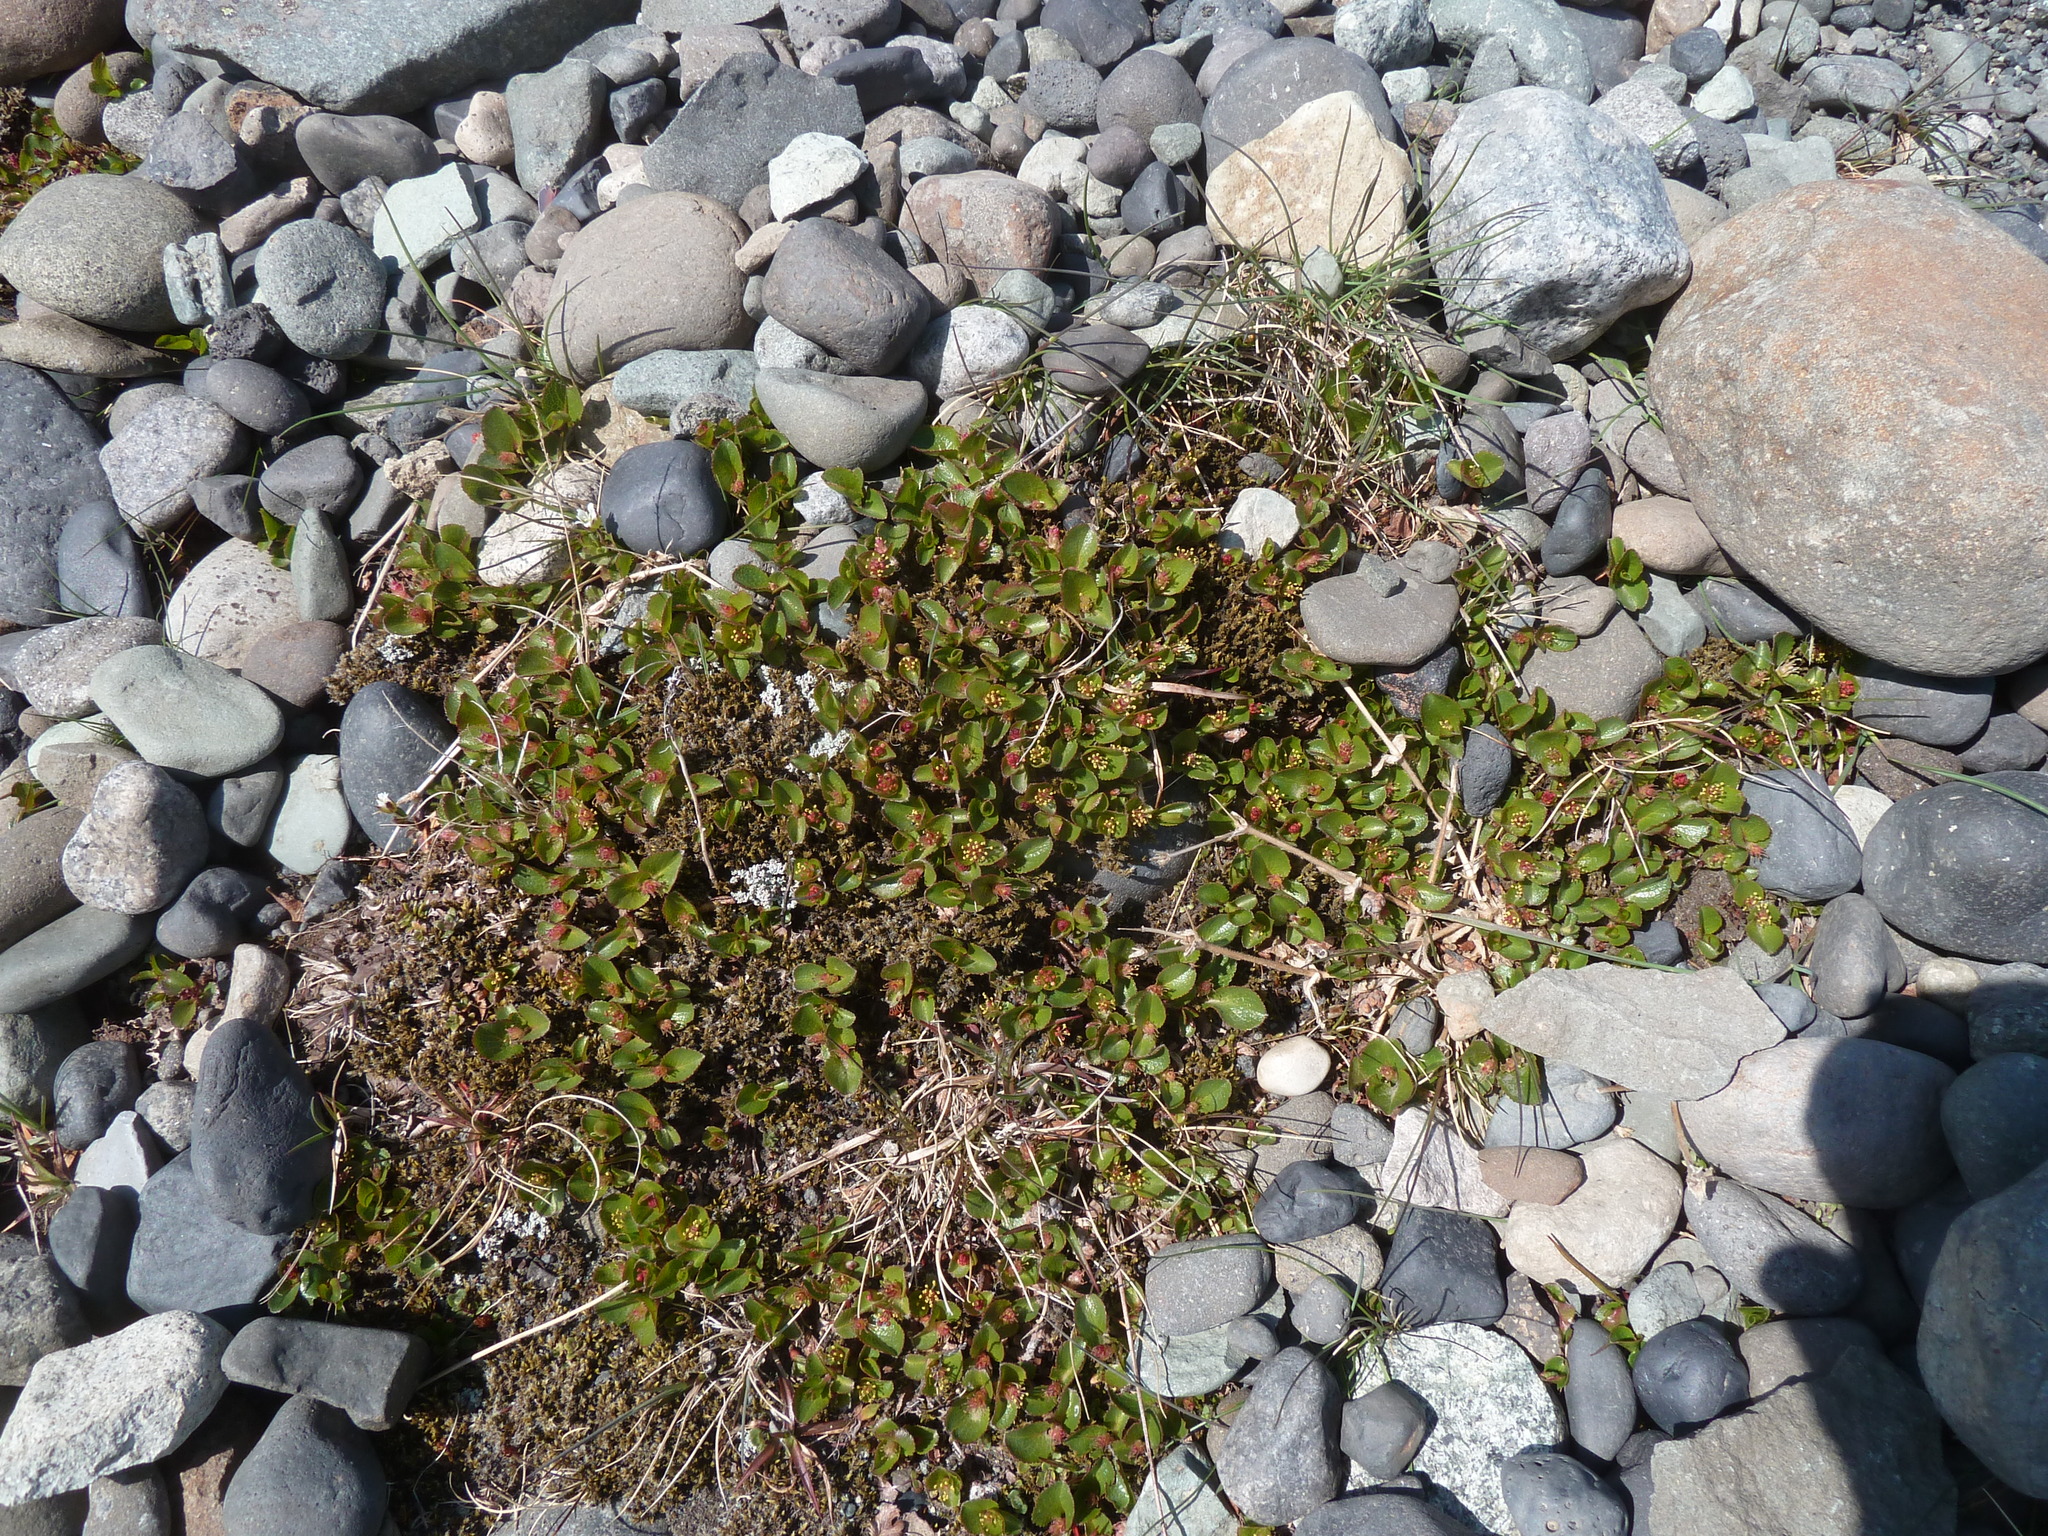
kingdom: Plantae
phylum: Tracheophyta
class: Magnoliopsida
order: Malpighiales
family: Salicaceae
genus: Salix
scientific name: Salix herbacea
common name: Dwarf willow
